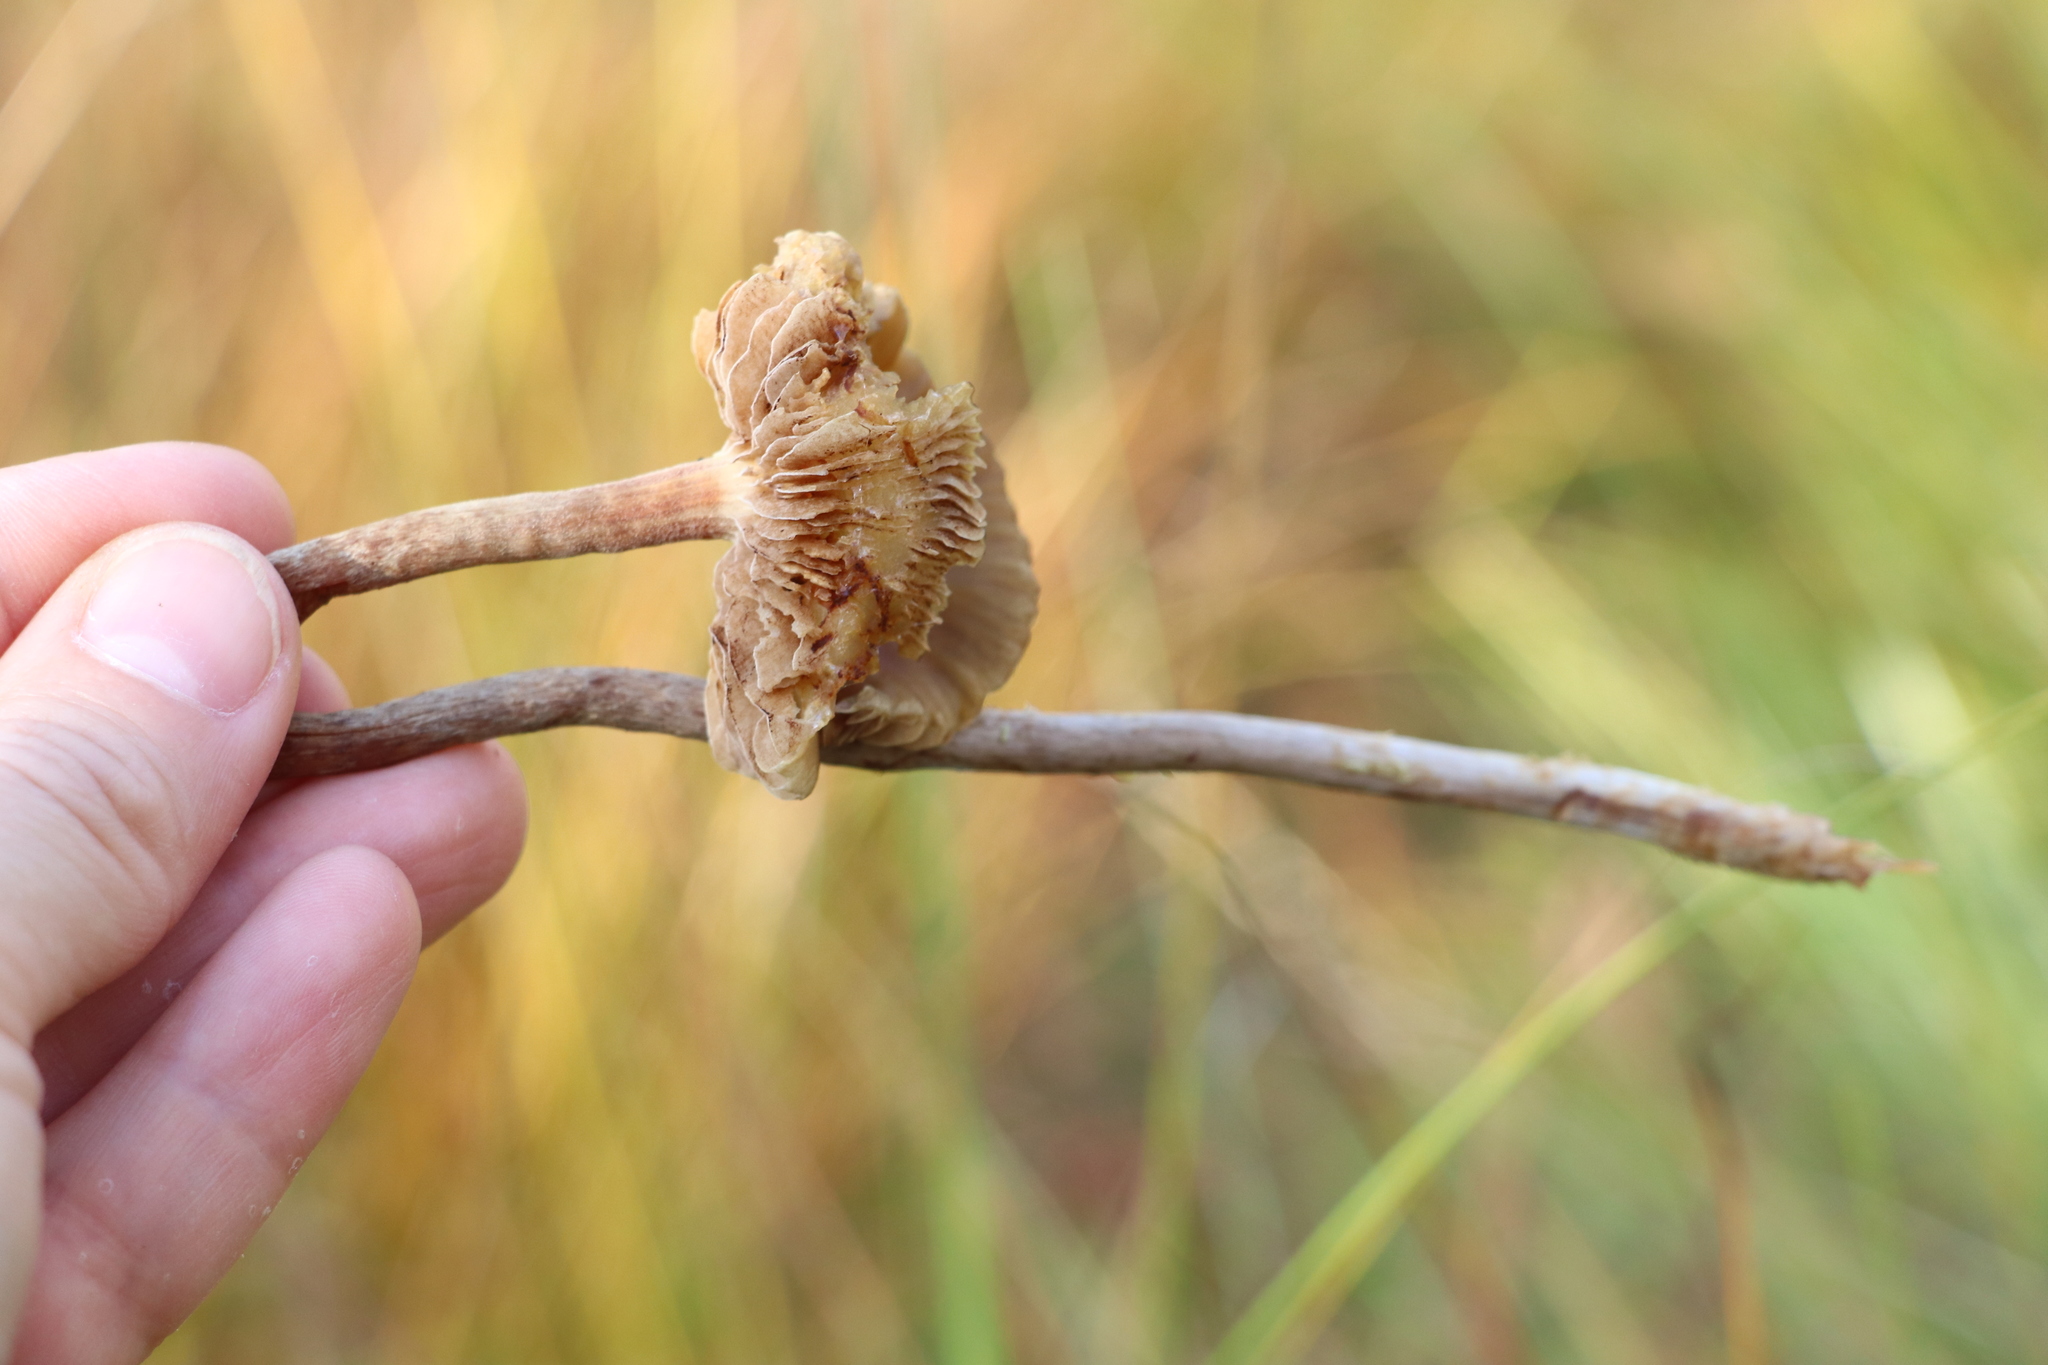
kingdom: Fungi
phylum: Basidiomycota
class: Agaricomycetes
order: Agaricales
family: Strophariaceae
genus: Hypholoma
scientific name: Hypholoma myosotis
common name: Olive brownie
